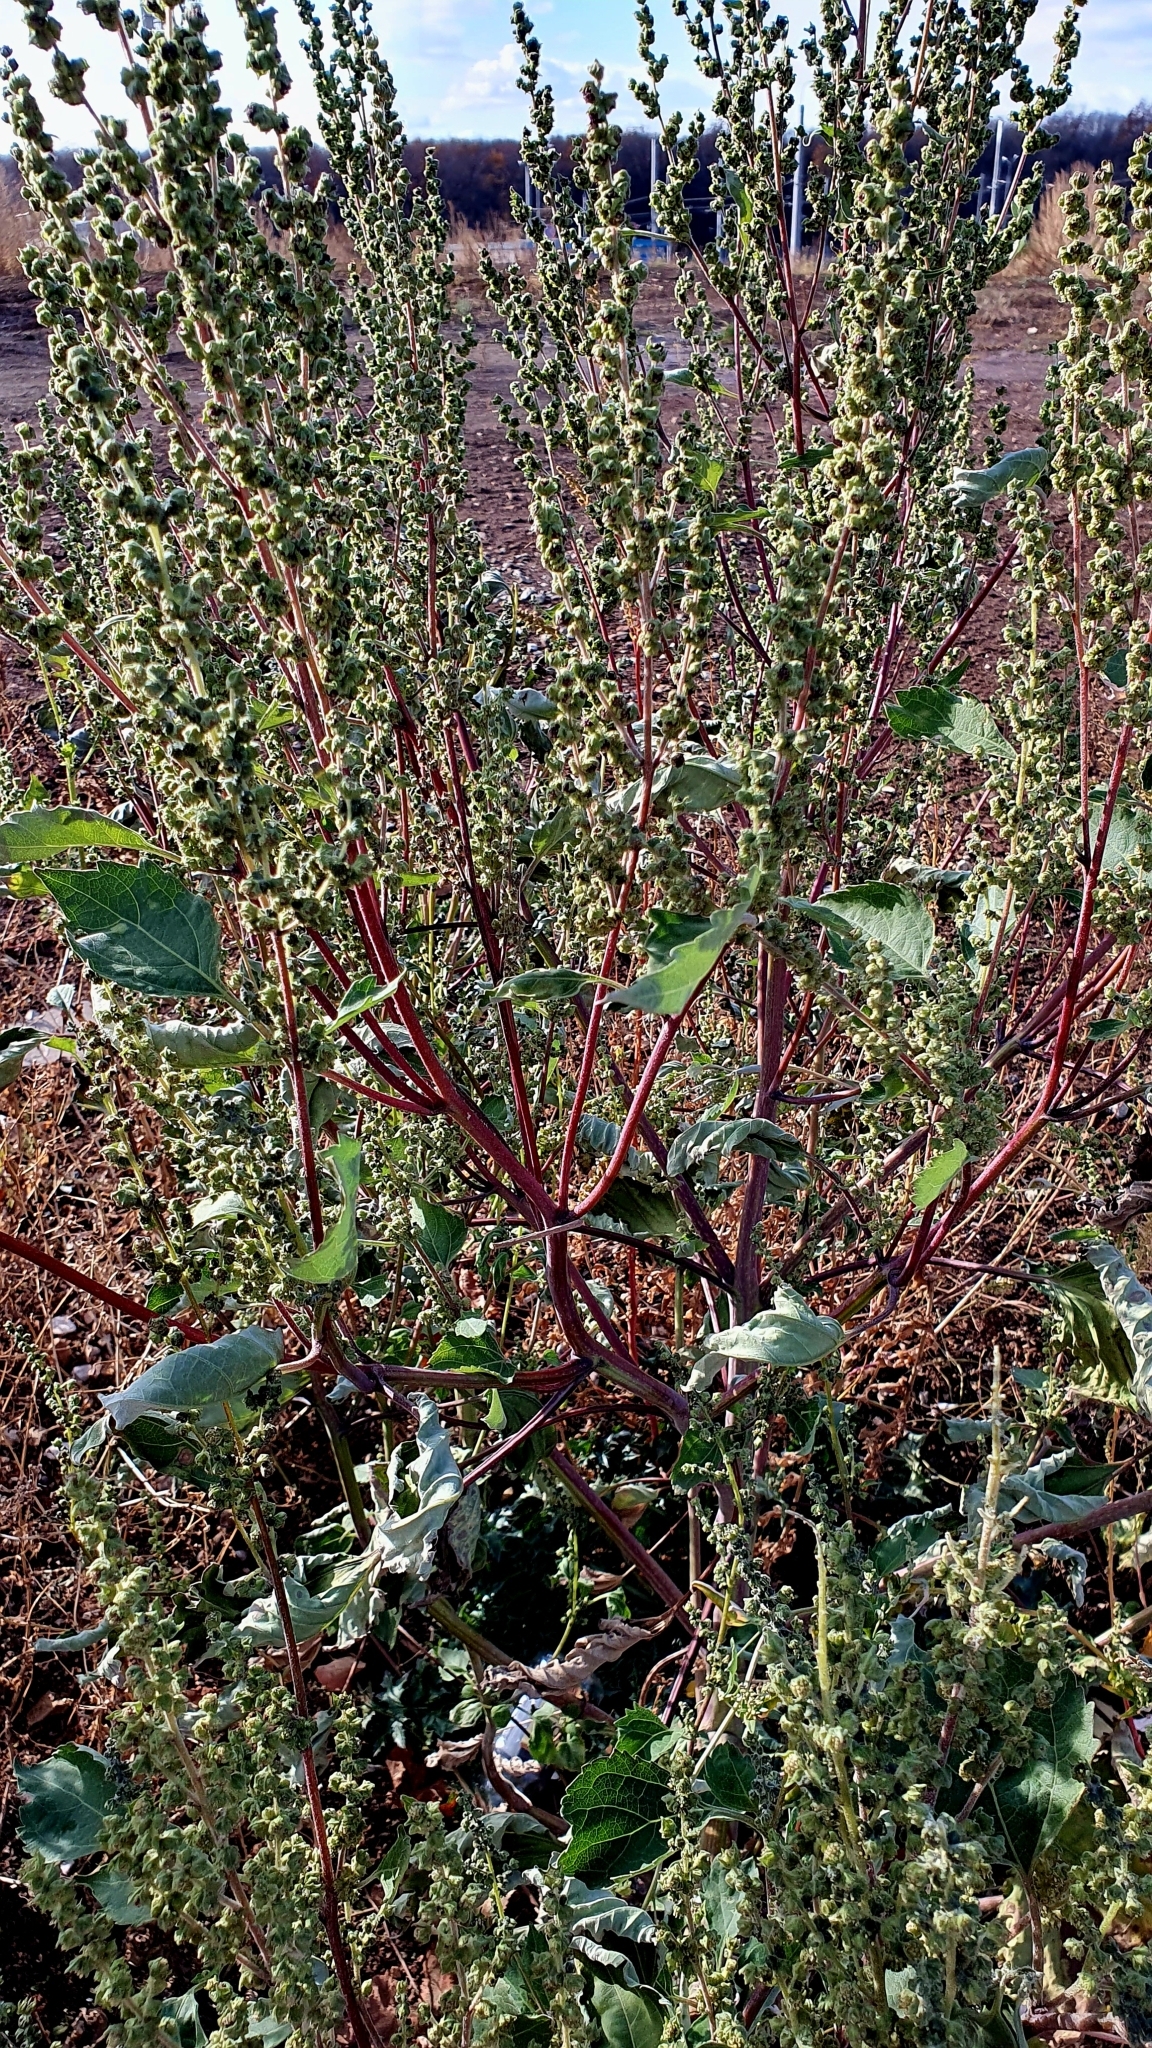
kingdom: Plantae
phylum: Tracheophyta
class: Magnoliopsida
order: Asterales
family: Asteraceae
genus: Cyclachaena
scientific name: Cyclachaena xanthiifolia
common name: Giant sumpweed
